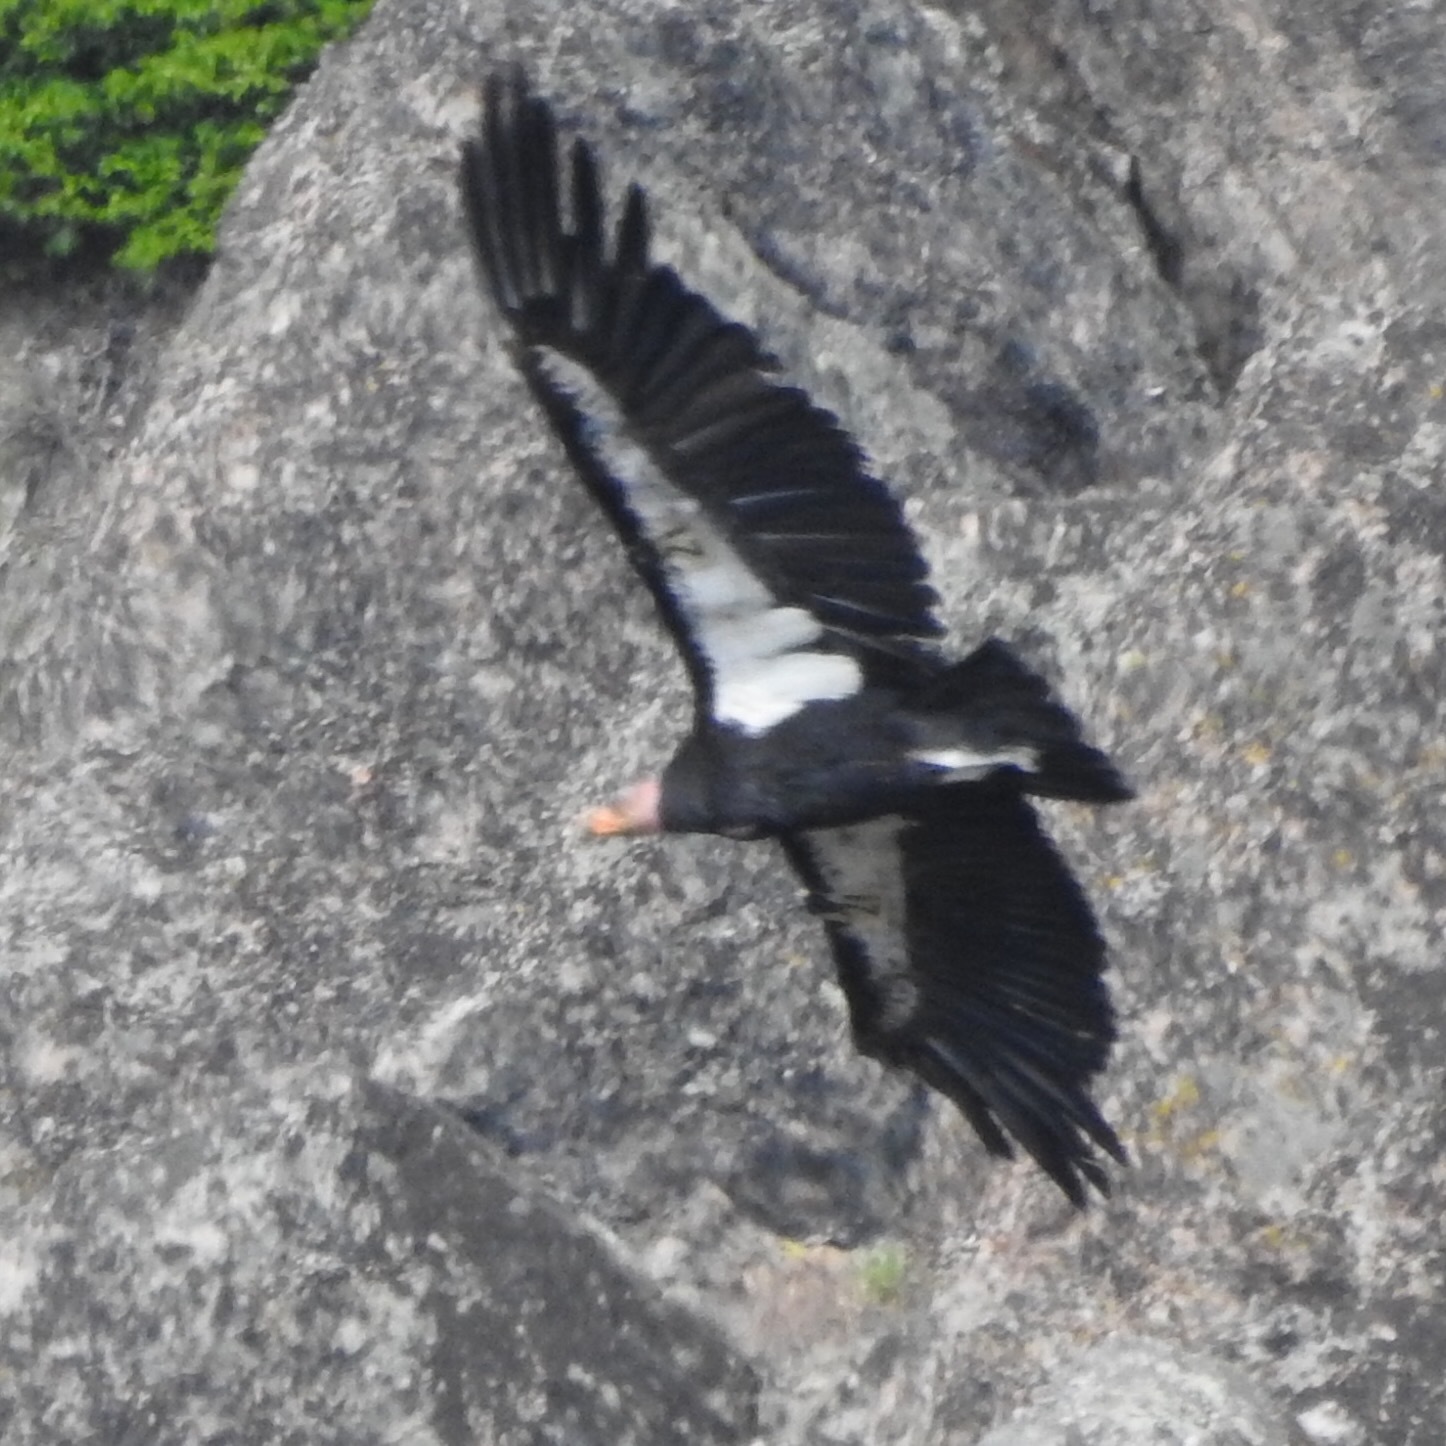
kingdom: Animalia
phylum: Chordata
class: Aves
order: Accipitriformes
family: Cathartidae
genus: Gymnogyps
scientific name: Gymnogyps californianus
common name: California condor
